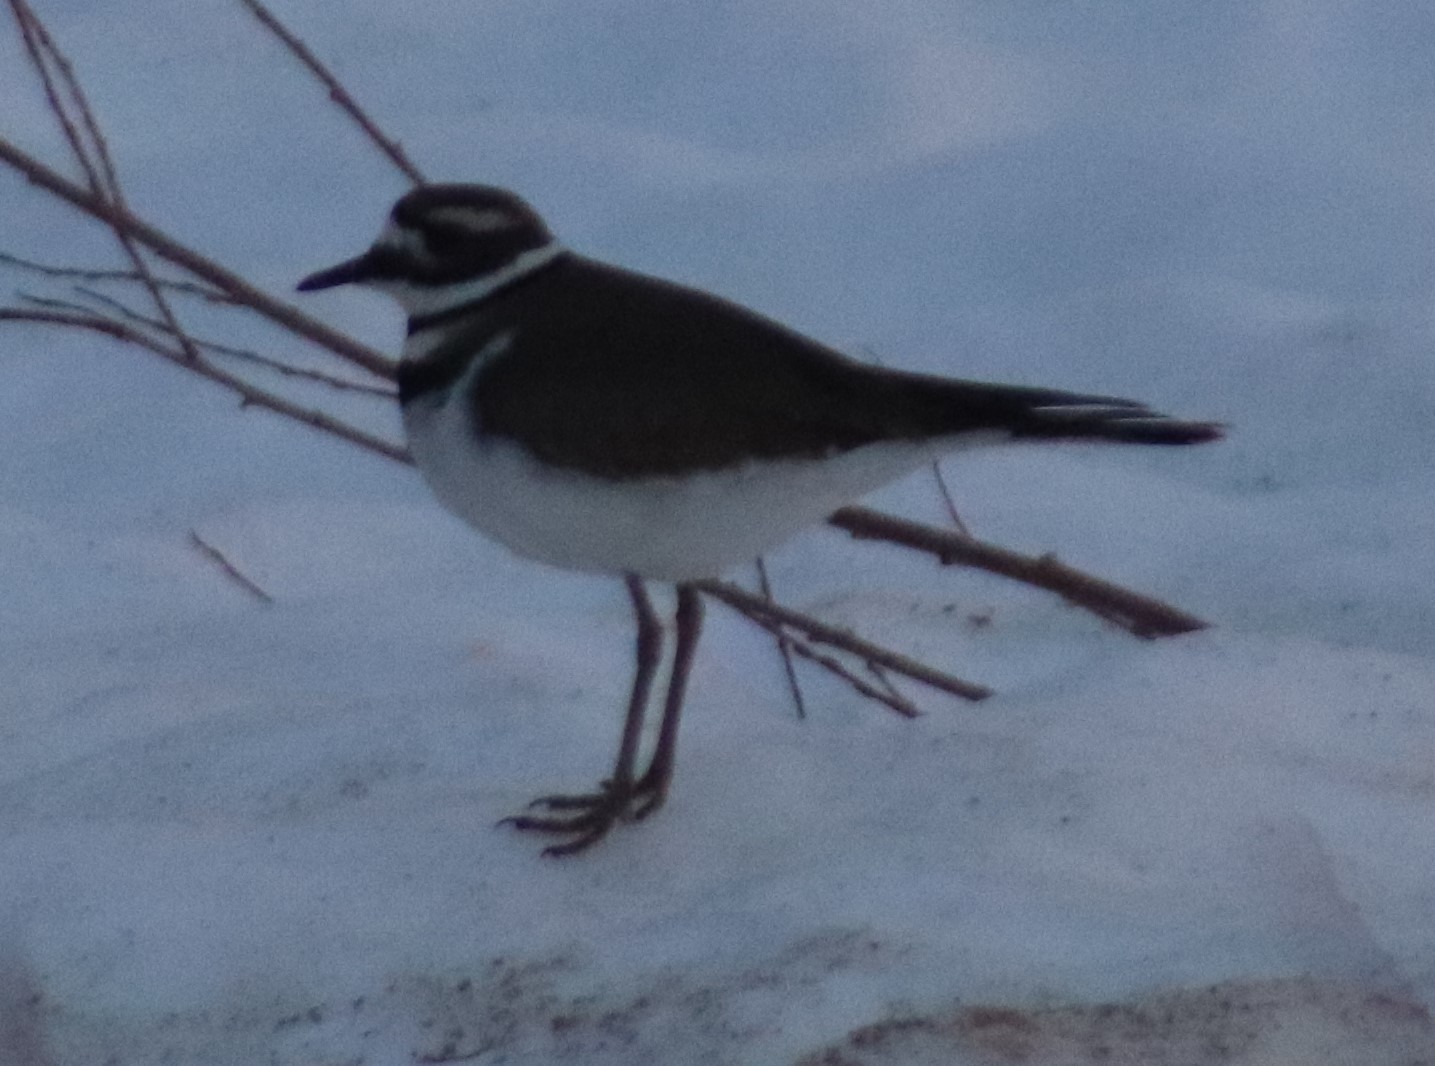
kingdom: Animalia
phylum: Chordata
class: Aves
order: Charadriiformes
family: Charadriidae
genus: Charadrius
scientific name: Charadrius vociferus
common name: Killdeer
